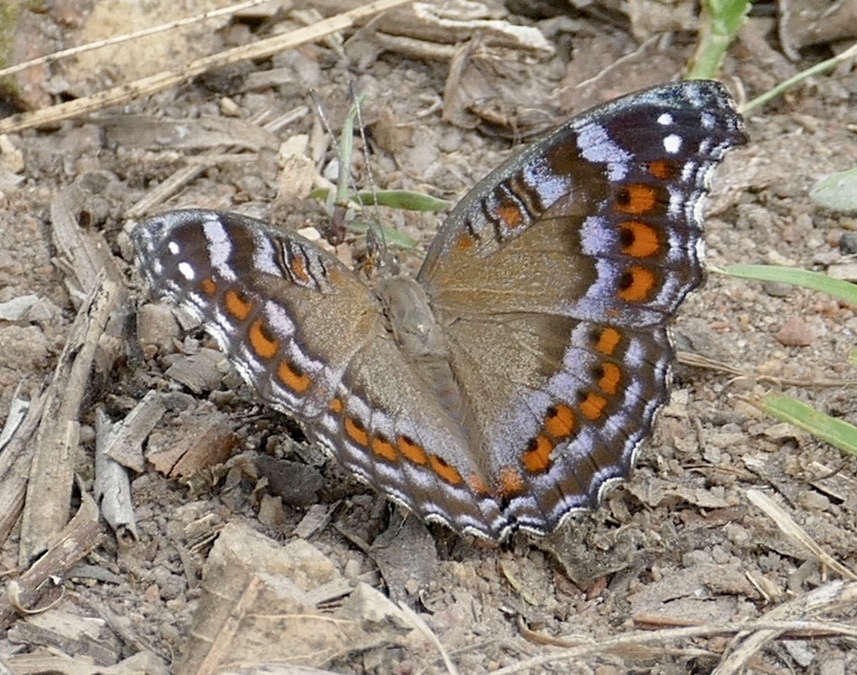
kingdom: Animalia
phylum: Arthropoda
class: Insecta
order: Lepidoptera
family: Nymphalidae
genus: Precis
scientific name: Precis octavia
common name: Gaudy commodore
